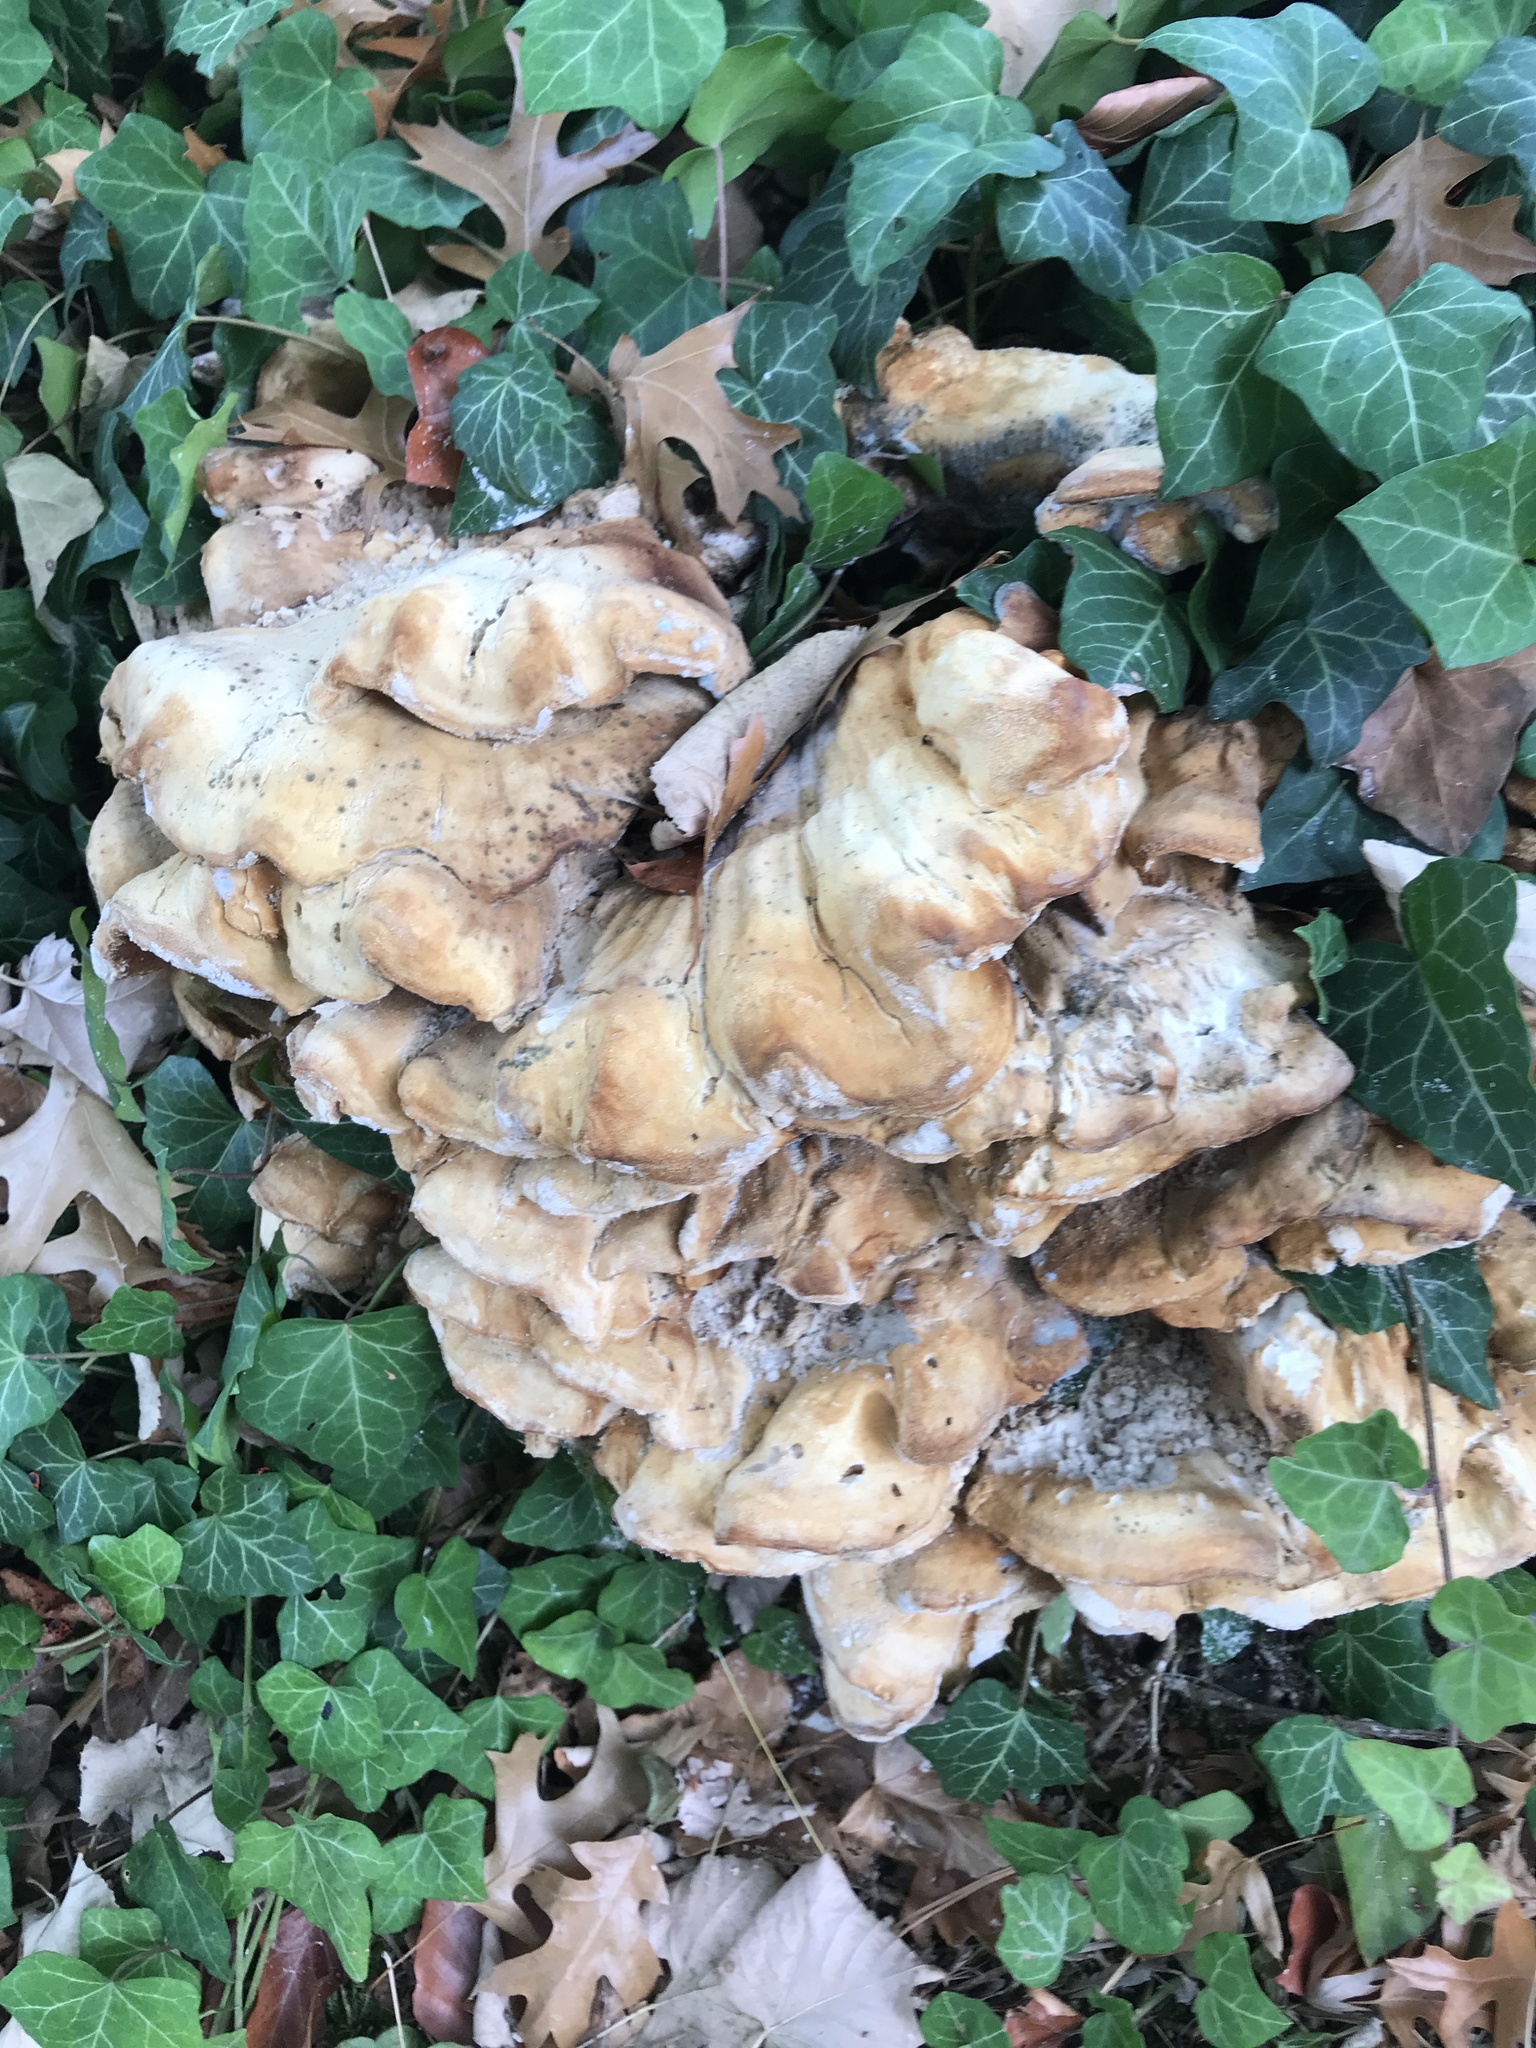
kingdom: Fungi
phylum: Basidiomycota
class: Agaricomycetes
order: Polyporales
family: Meripilaceae
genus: Meripilus
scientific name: Meripilus giganteus
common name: Giant polypore
